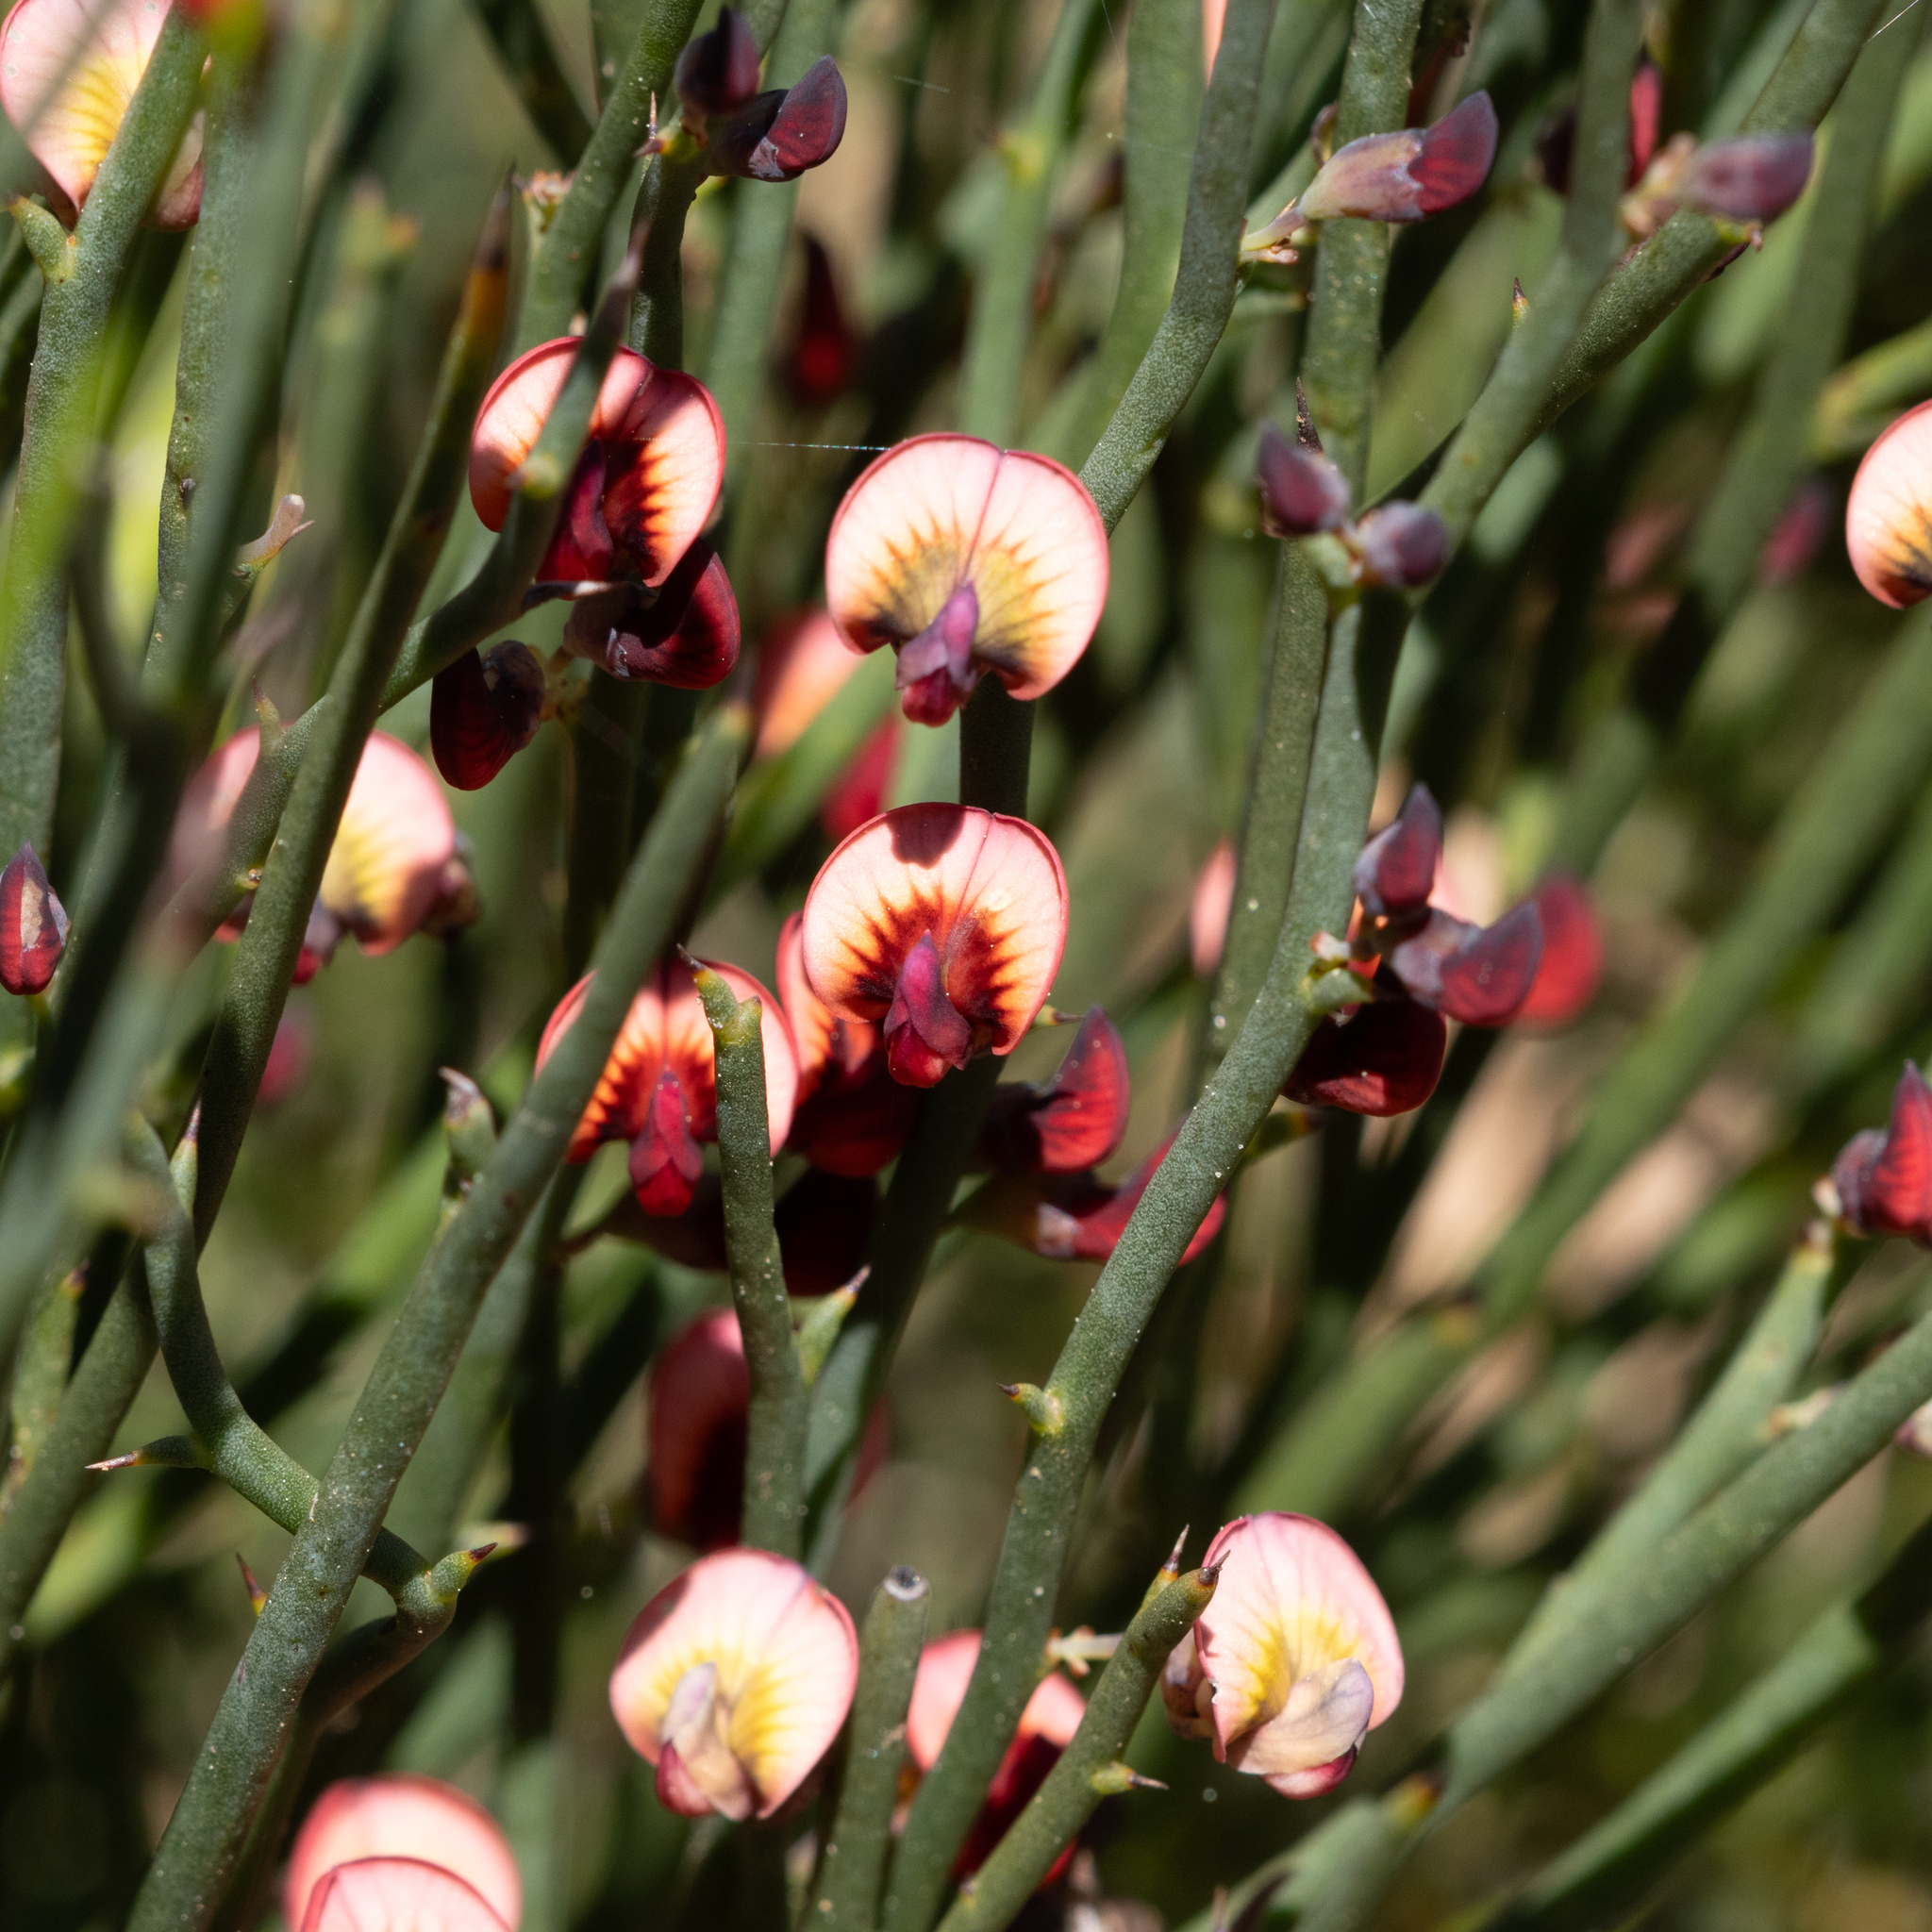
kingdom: Plantae
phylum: Tracheophyta
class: Magnoliopsida
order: Fabales
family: Fabaceae
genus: Daviesia
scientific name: Daviesia brevifolia
